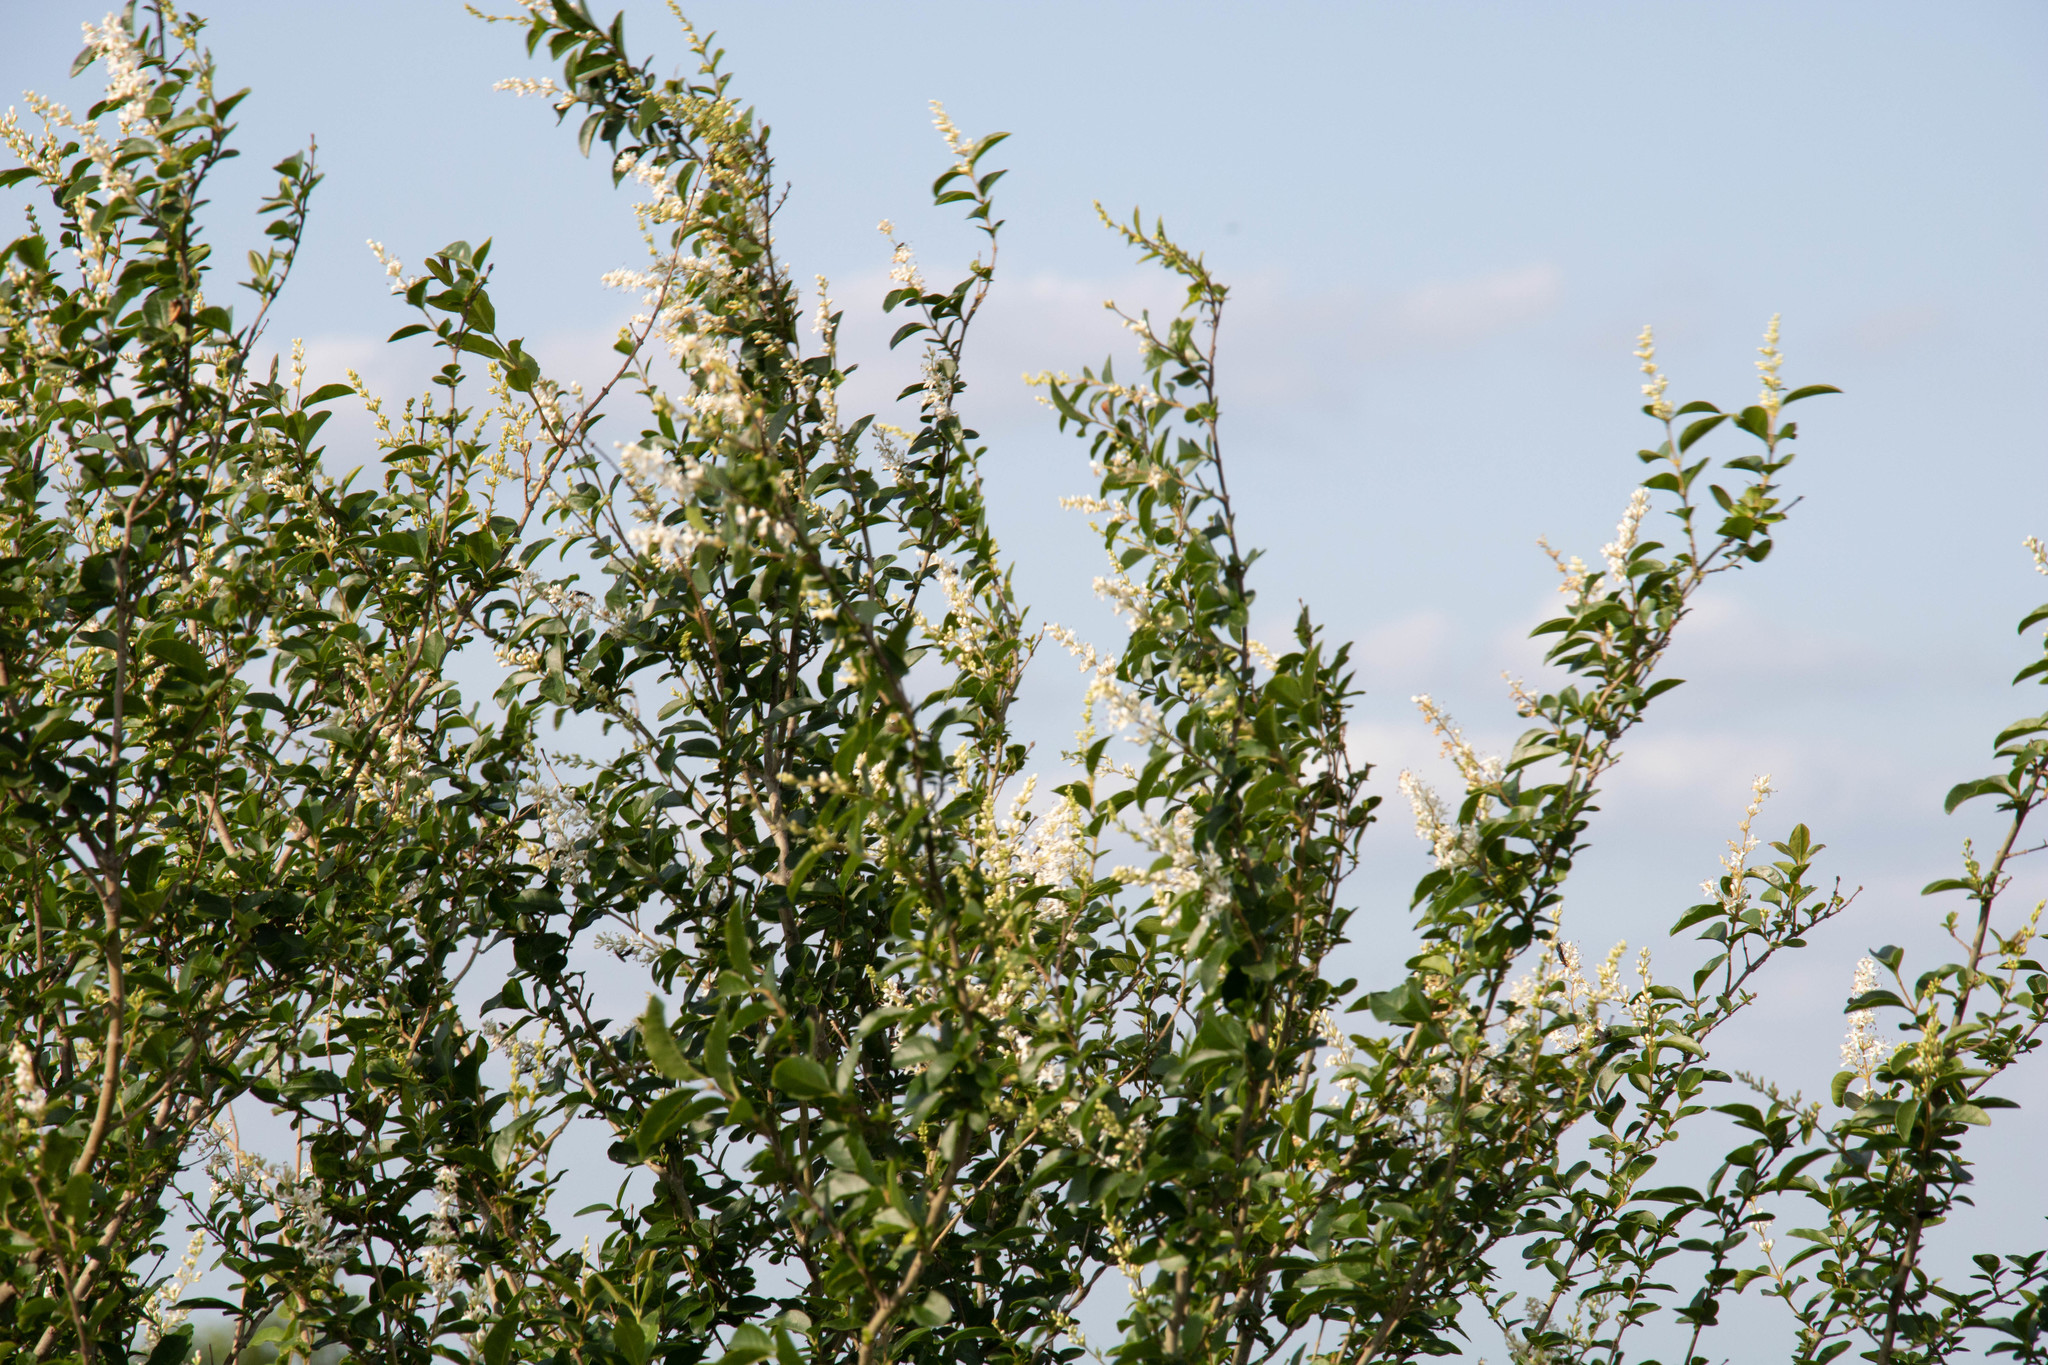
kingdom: Plantae
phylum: Tracheophyta
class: Magnoliopsida
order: Lamiales
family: Oleaceae
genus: Ligustrum
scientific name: Ligustrum sinense
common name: Chinese privet
